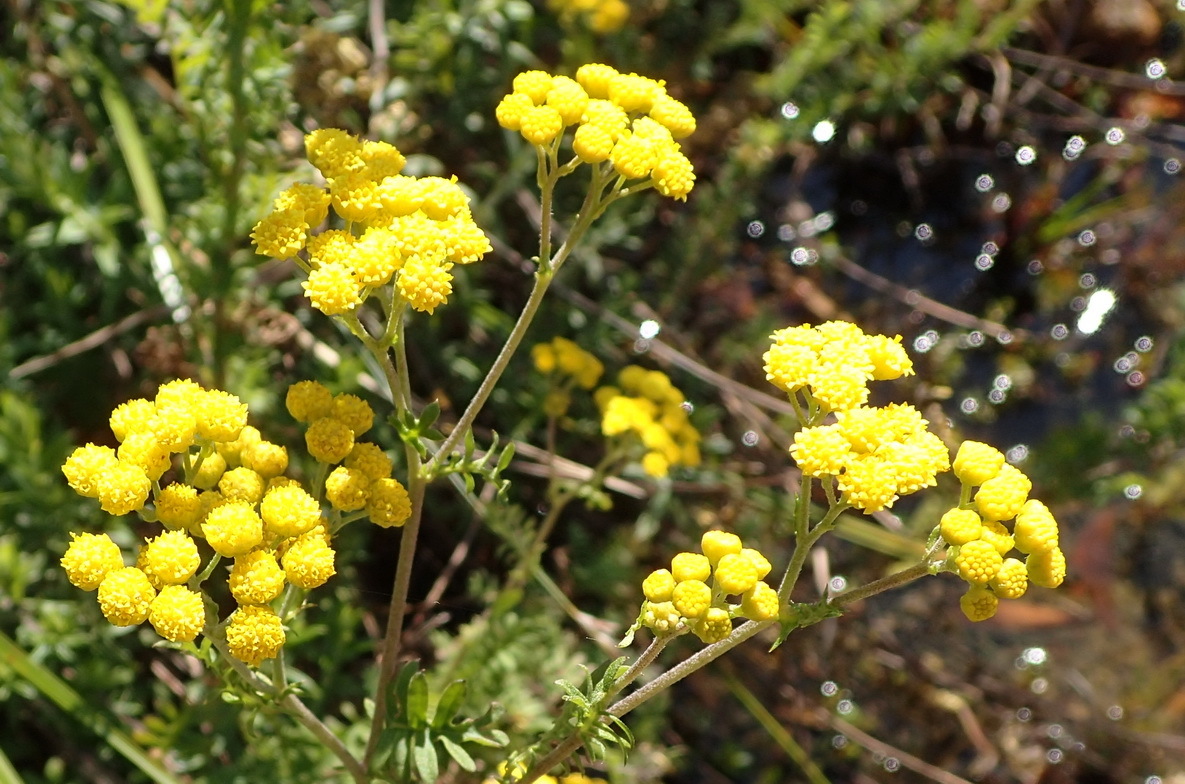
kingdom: Plantae
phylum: Tracheophyta
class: Magnoliopsida
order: Asterales
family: Asteraceae
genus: Hippia
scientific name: Hippia frutescens
